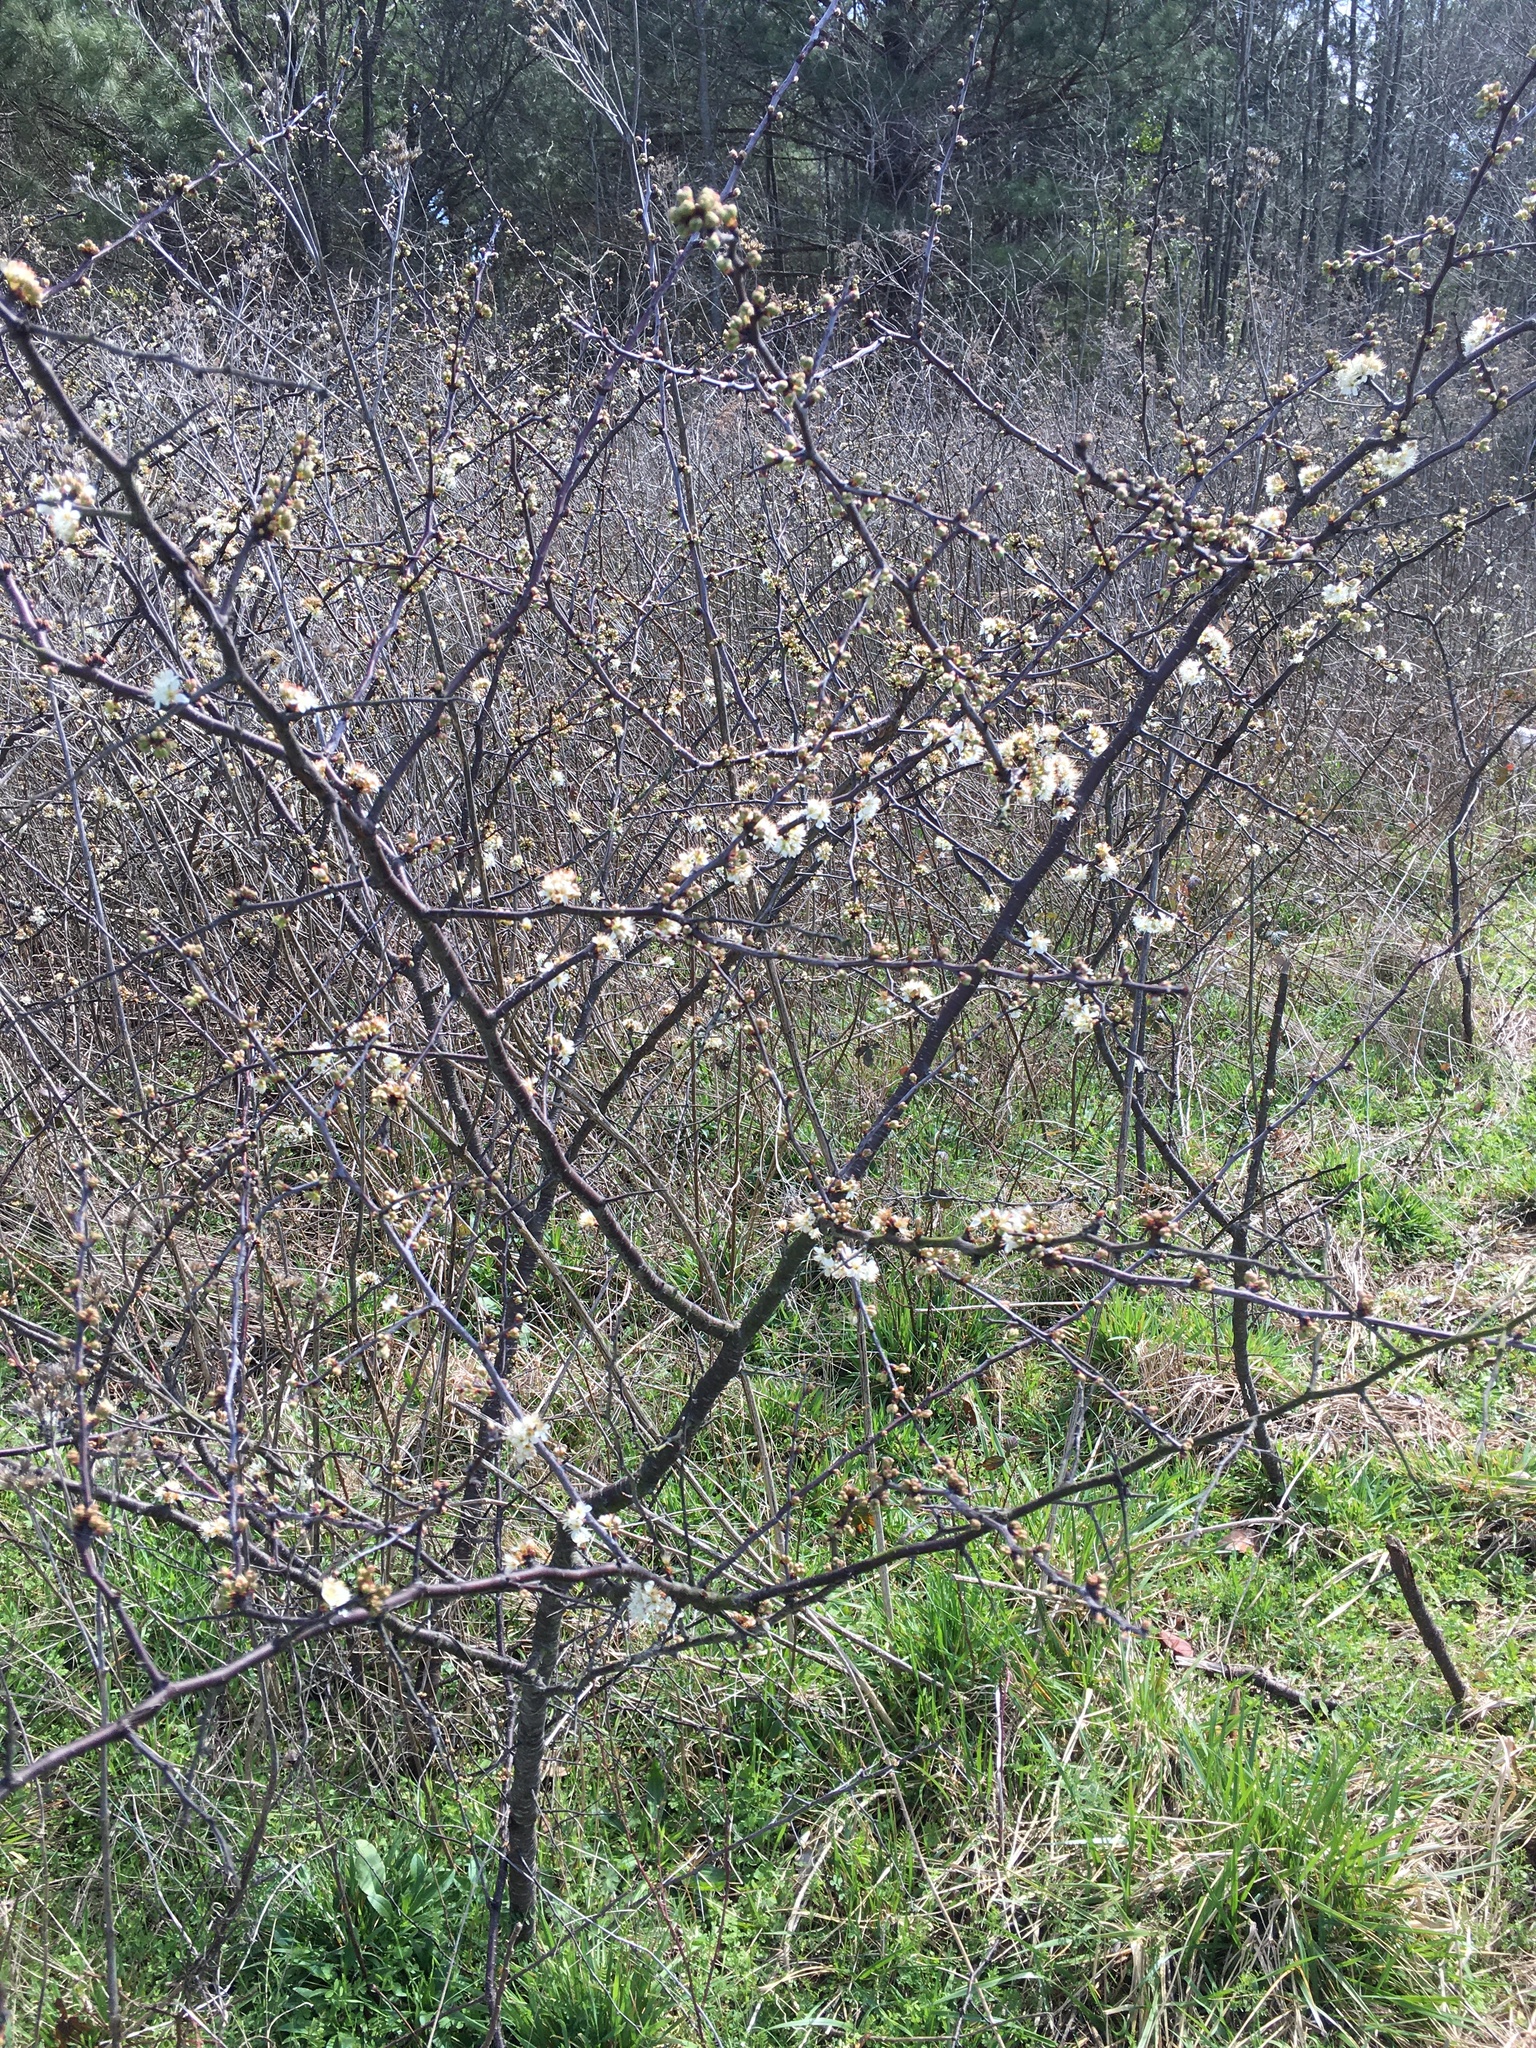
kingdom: Plantae
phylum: Tracheophyta
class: Magnoliopsida
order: Rosales
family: Rosaceae
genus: Prunus
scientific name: Prunus angustifolia
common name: Cherokee plum
